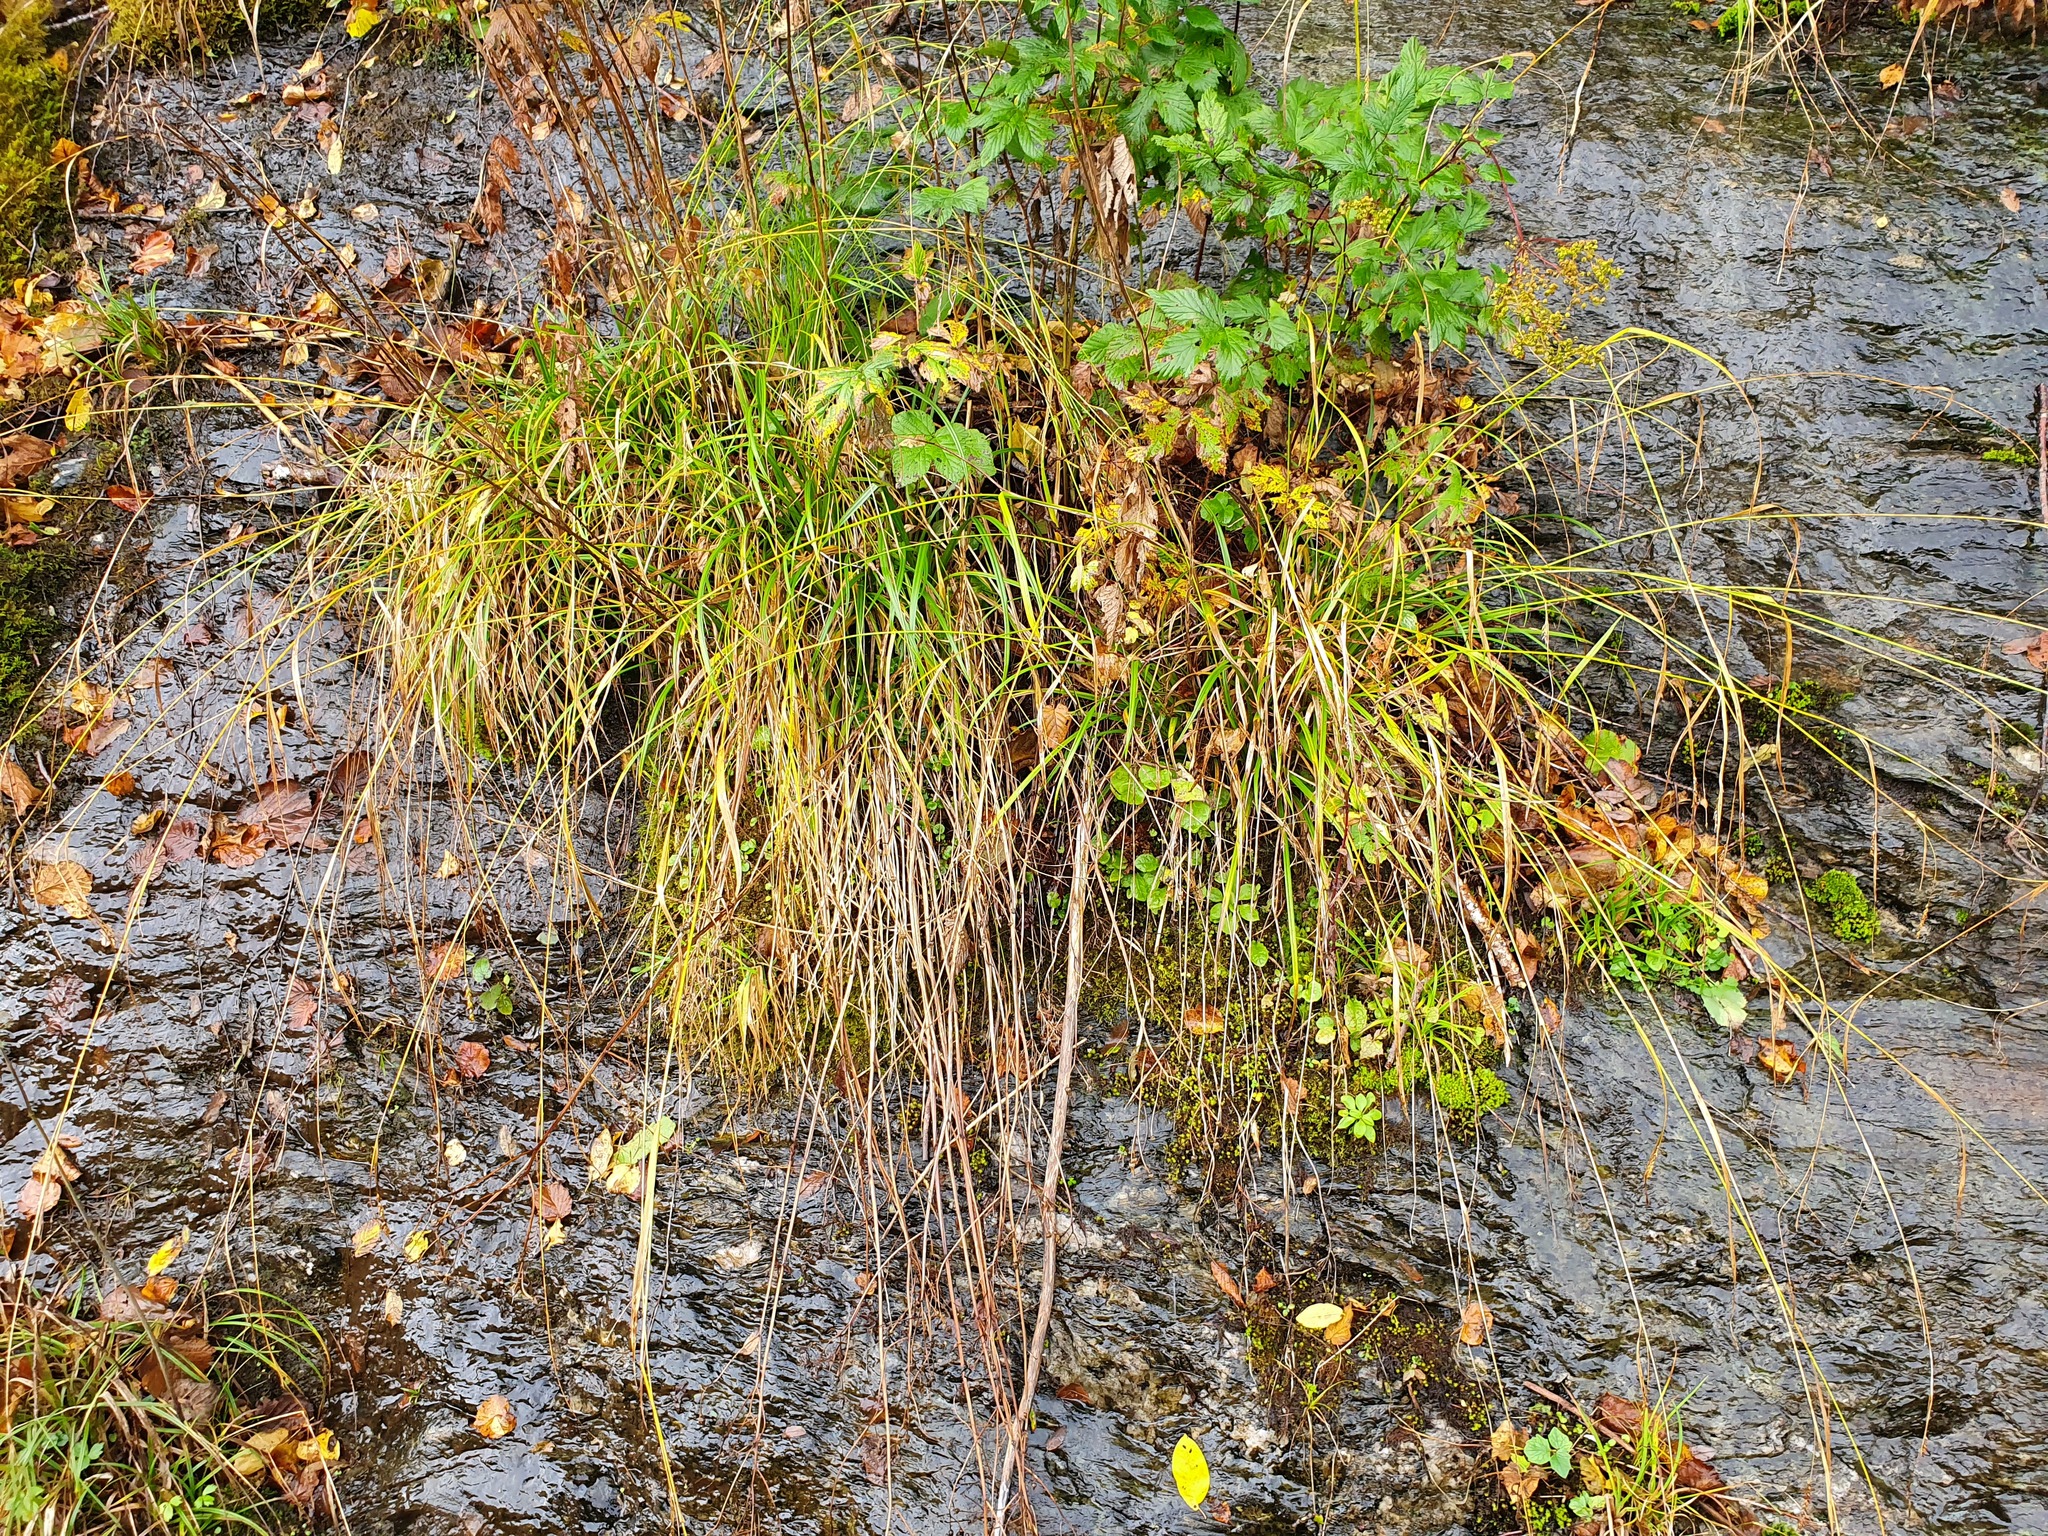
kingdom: Plantae
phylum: Tracheophyta
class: Liliopsida
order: Poales
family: Cyperaceae
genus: Carex
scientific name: Carex sylvatica
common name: Wood-sedge
